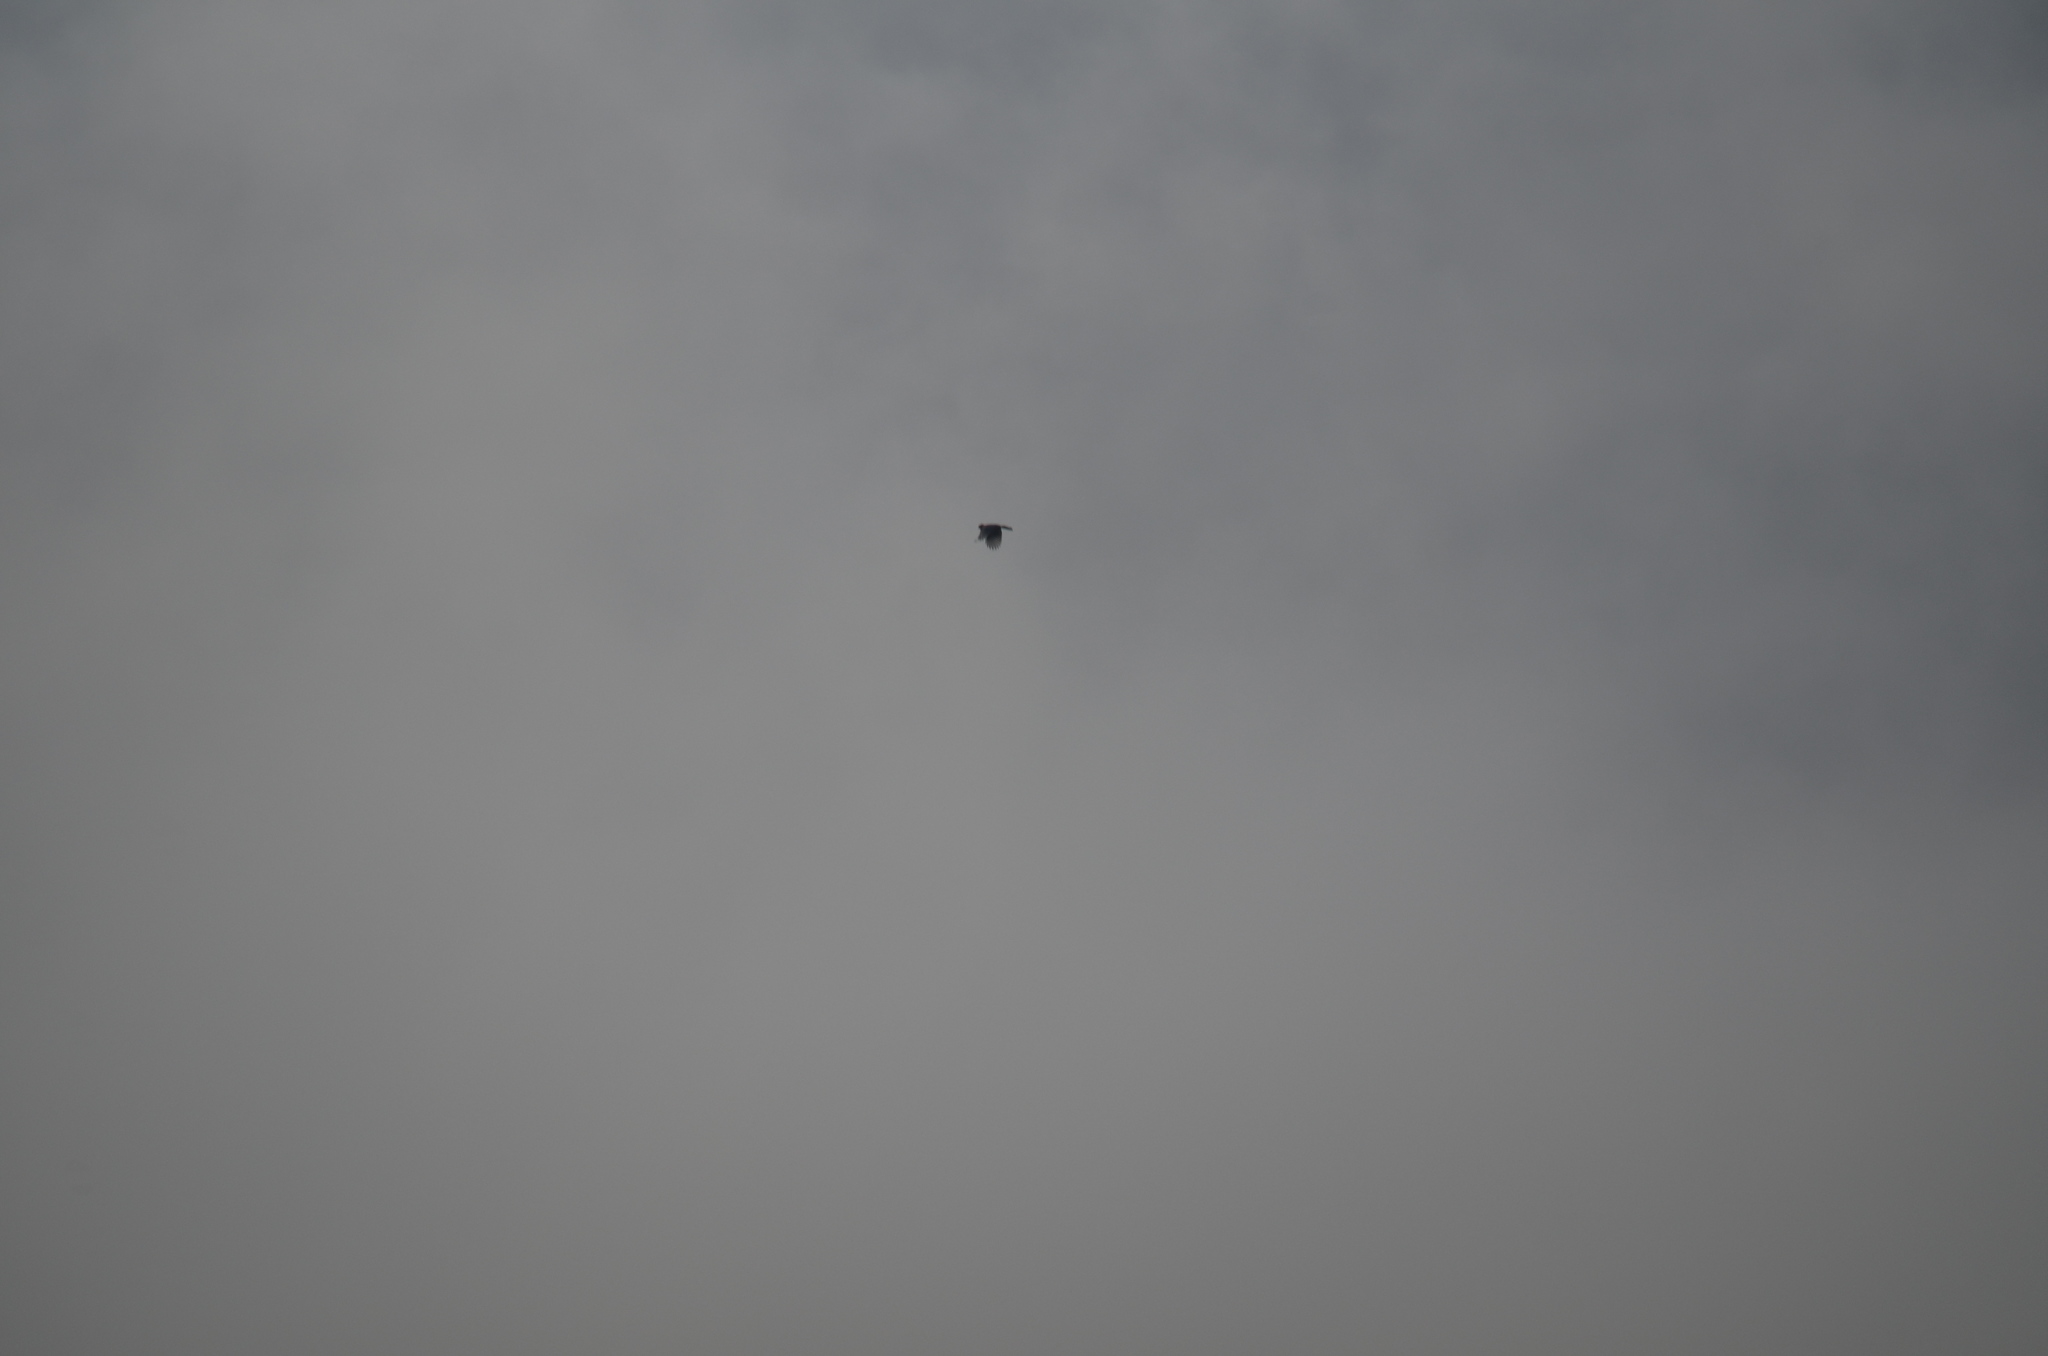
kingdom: Animalia
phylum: Chordata
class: Aves
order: Passeriformes
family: Corvidae
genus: Cyanocitta
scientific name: Cyanocitta stelleri
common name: Steller's jay
